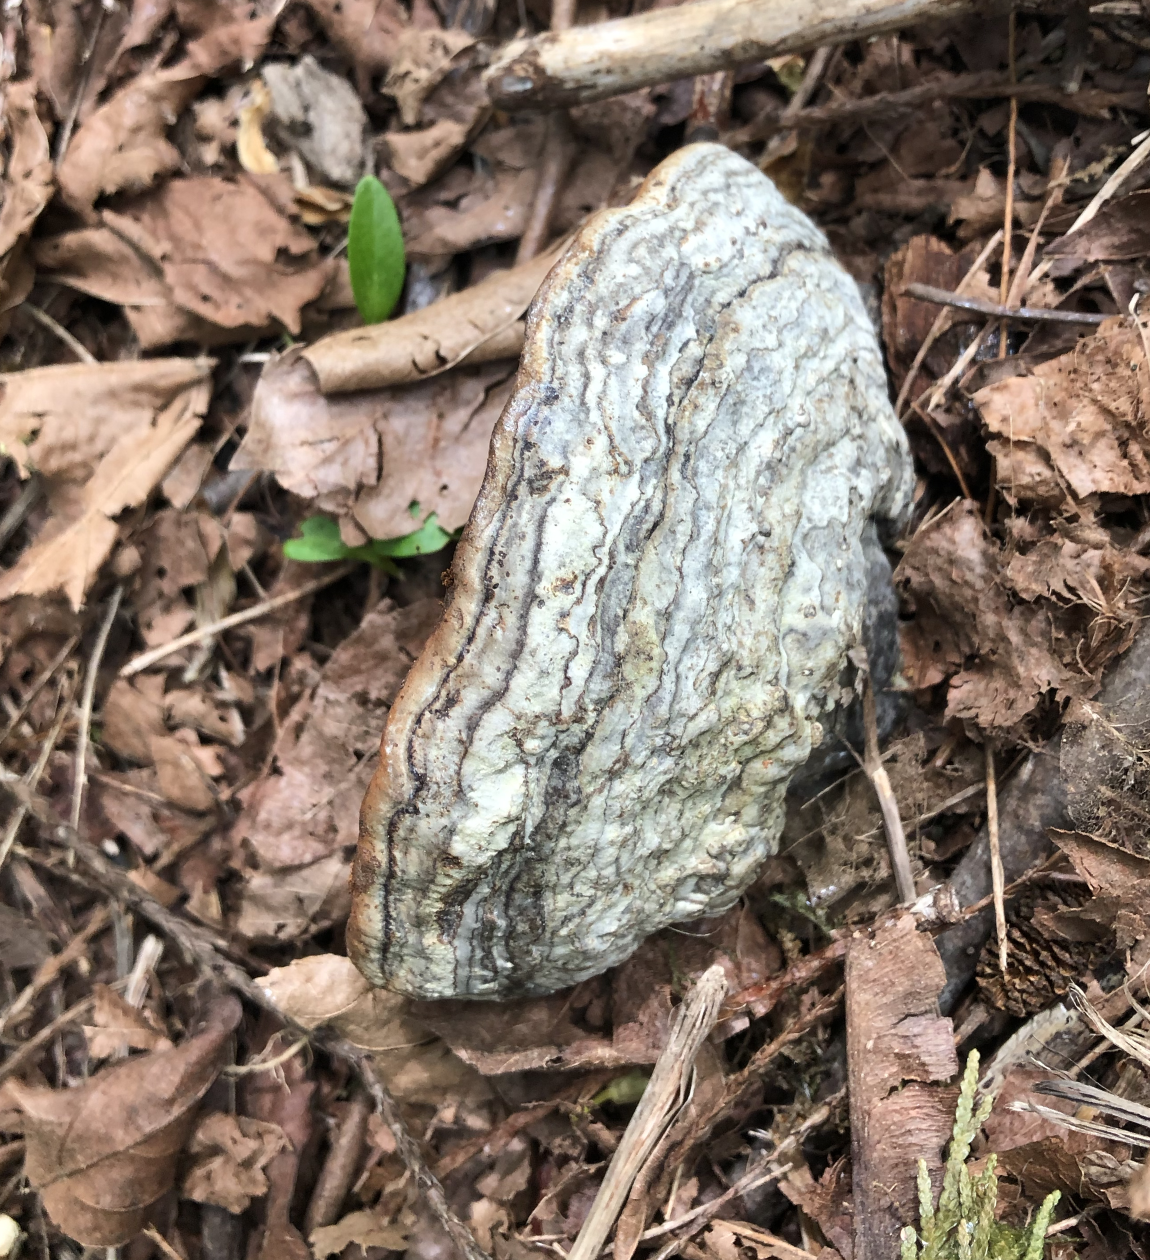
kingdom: Fungi
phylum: Basidiomycota
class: Agaricomycetes
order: Polyporales
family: Polyporaceae
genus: Fomes
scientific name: Fomes fomentarius
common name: Hoof fungus
